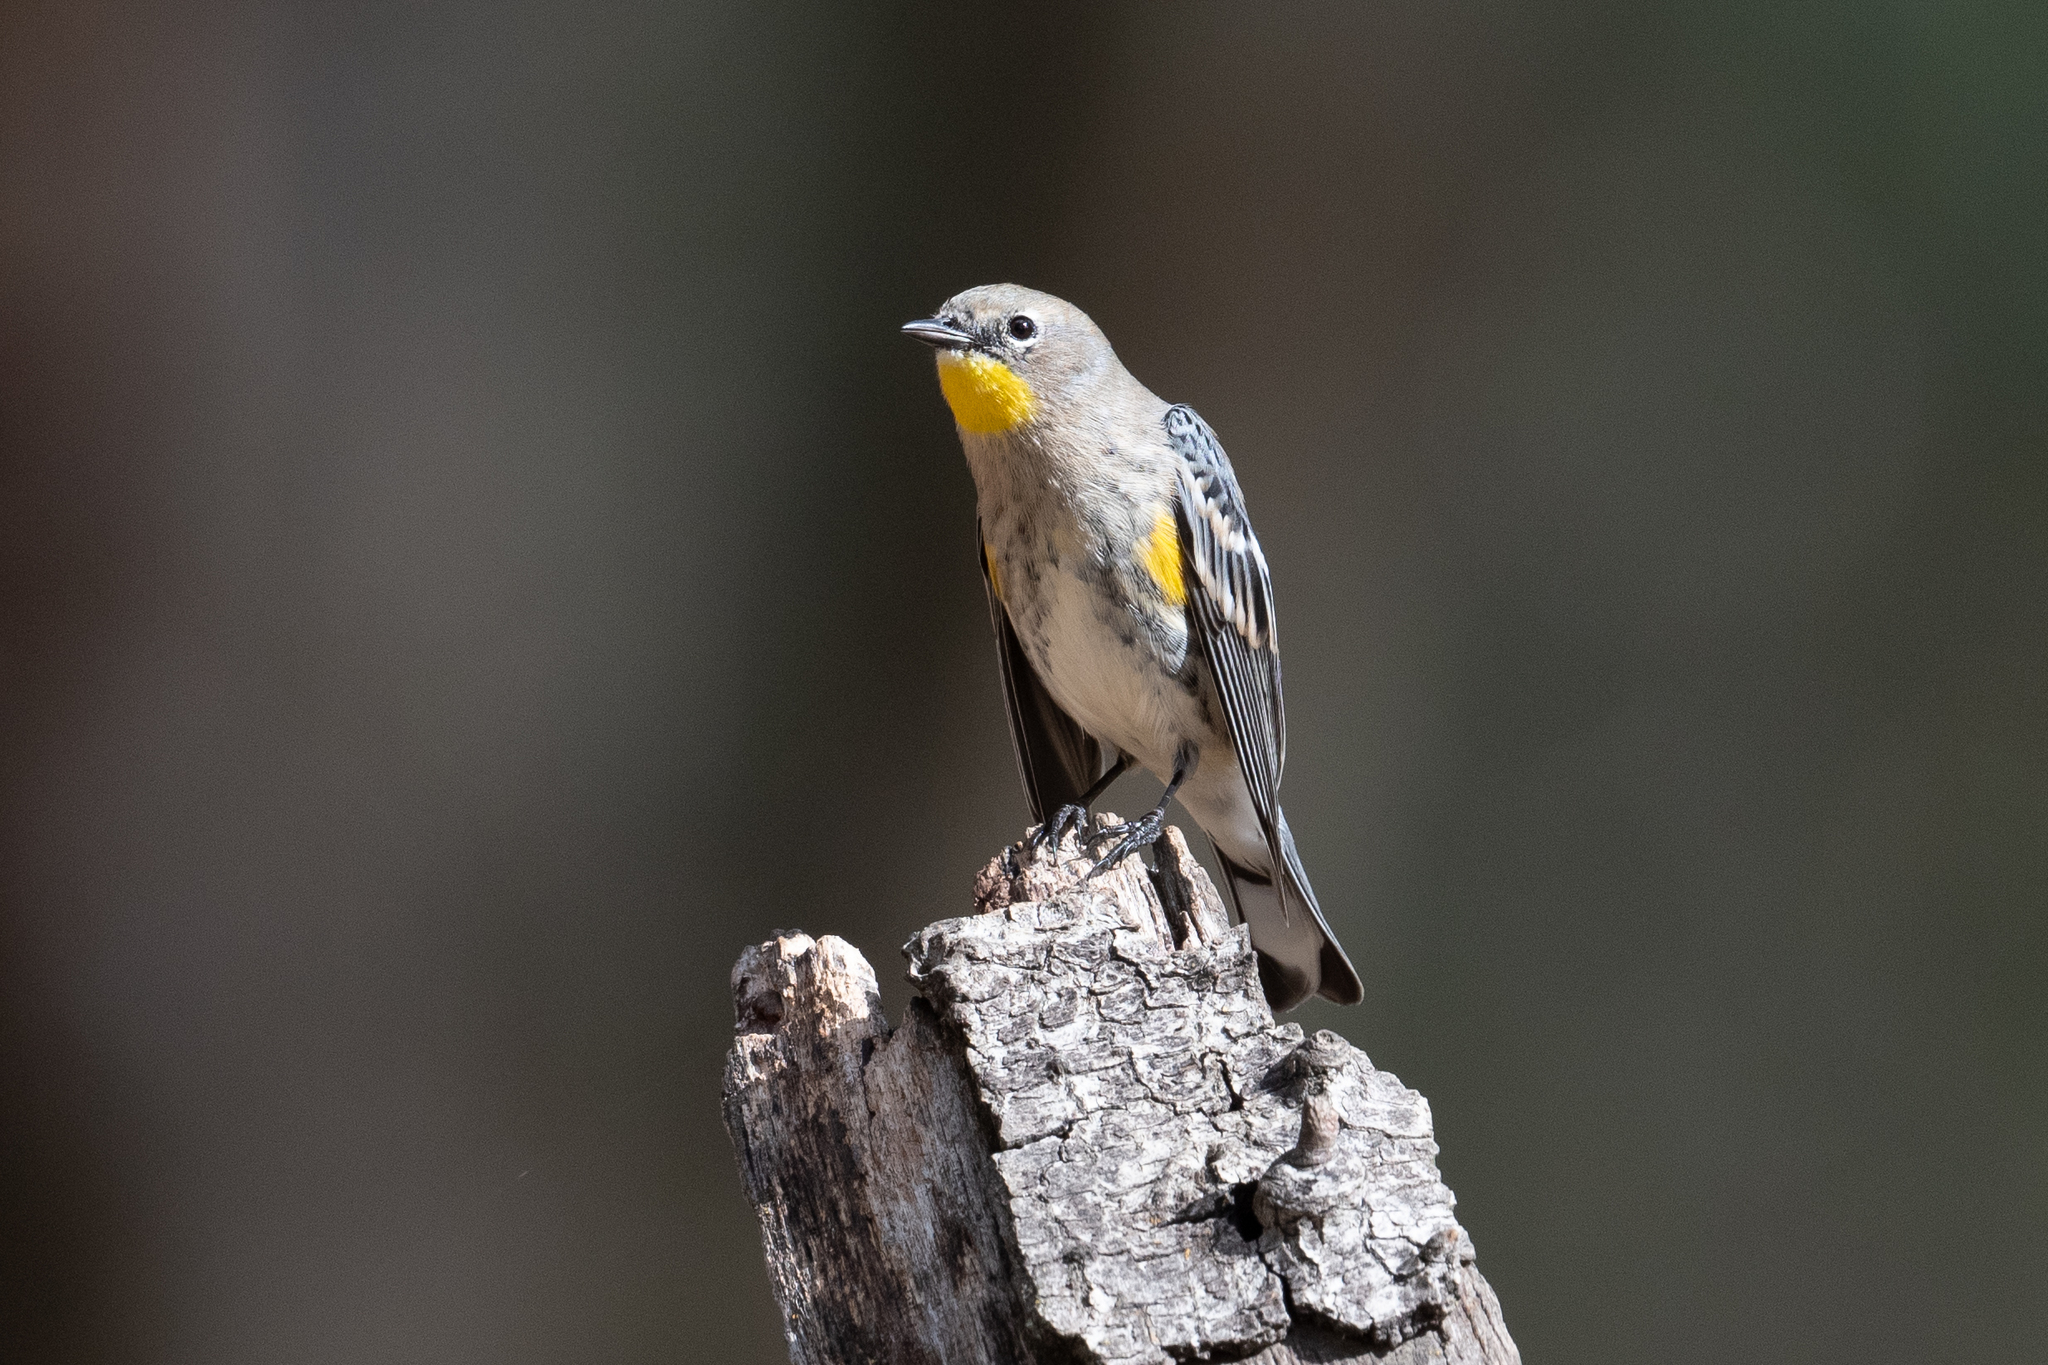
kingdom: Animalia
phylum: Chordata
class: Aves
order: Passeriformes
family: Parulidae
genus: Setophaga
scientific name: Setophaga coronata
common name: Myrtle warbler
